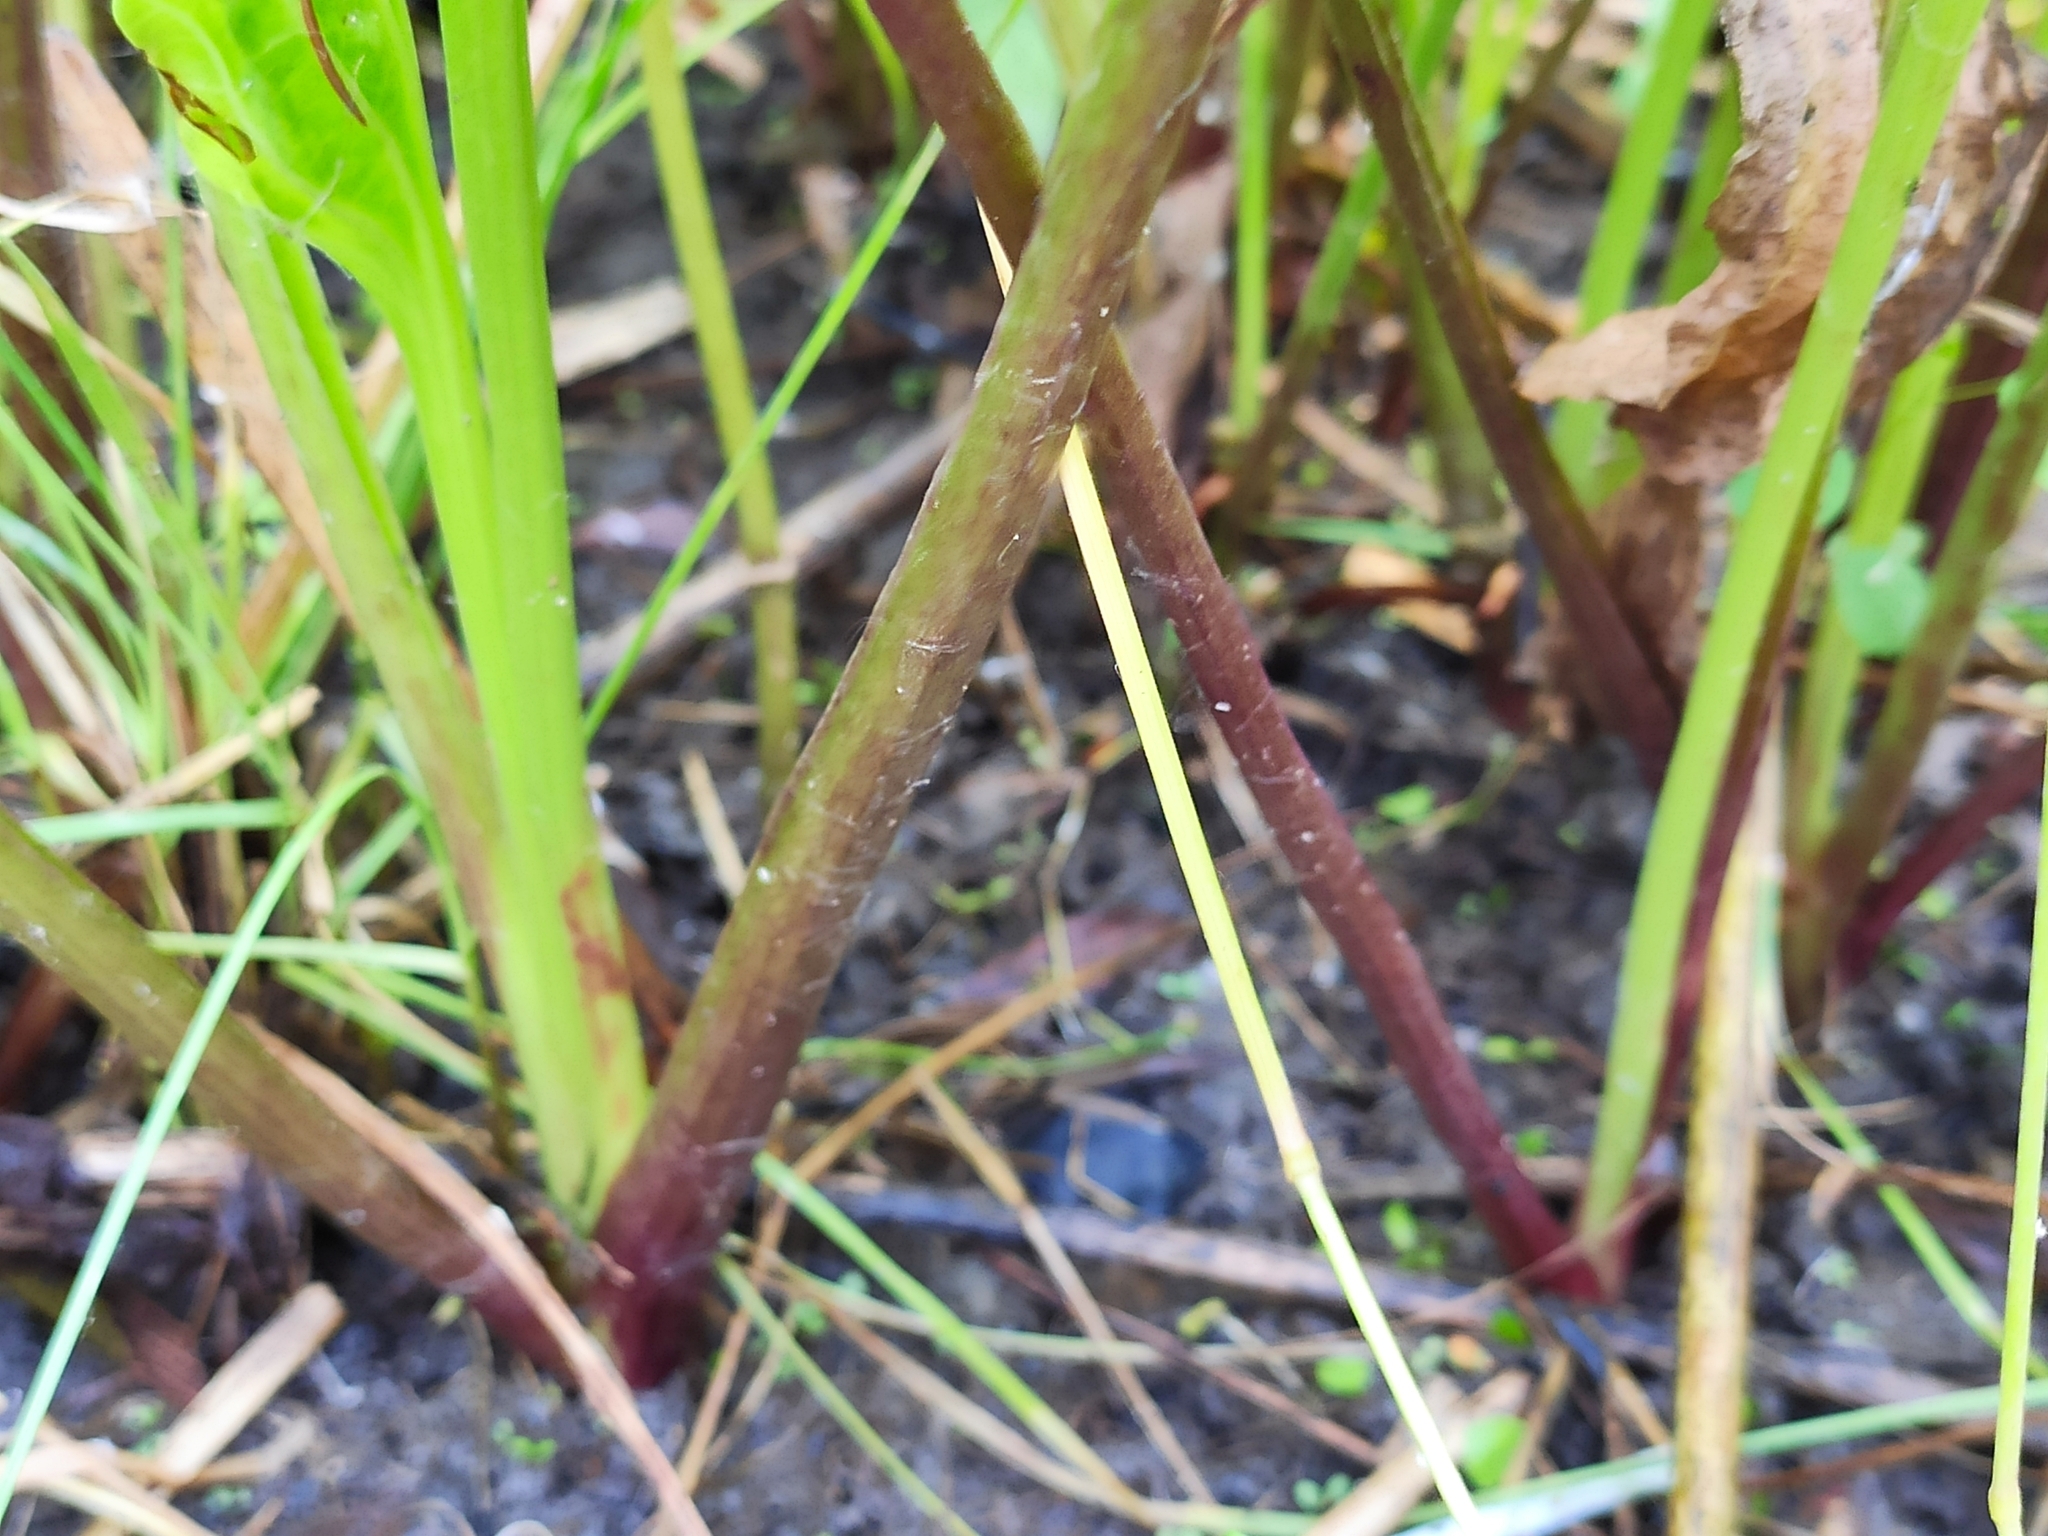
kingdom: Plantae
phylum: Tracheophyta
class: Magnoliopsida
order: Lamiales
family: Plantaginaceae
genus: Plantago
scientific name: Plantago major
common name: Common plantain
